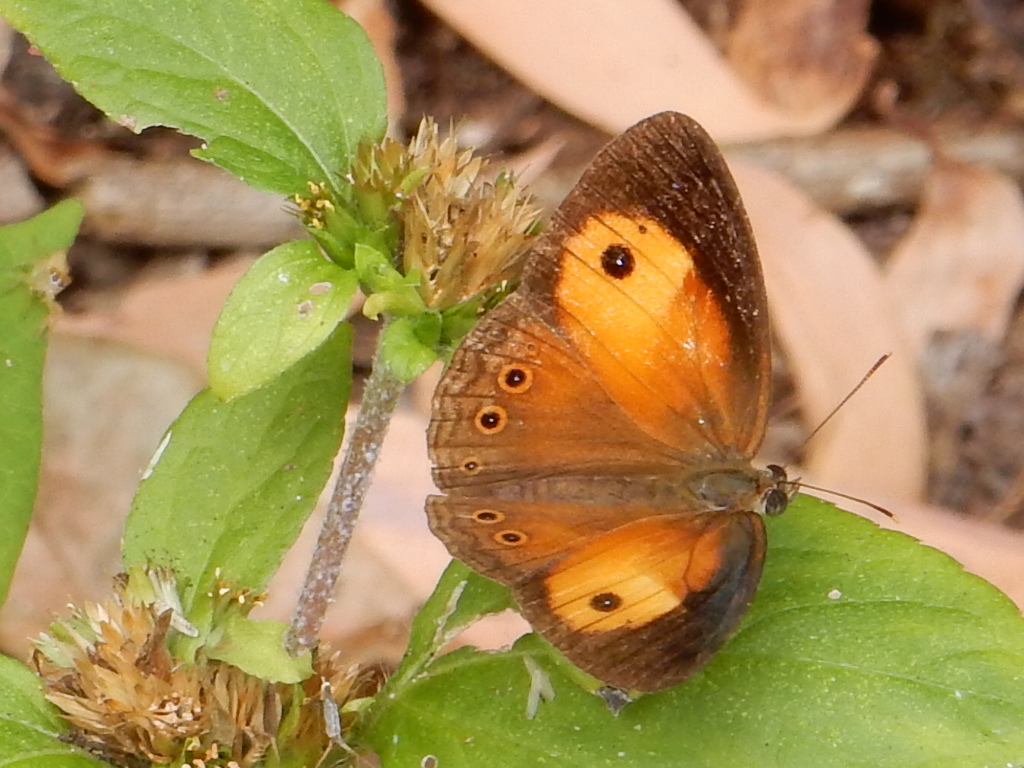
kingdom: Animalia
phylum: Arthropoda
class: Insecta
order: Lepidoptera
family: Nymphalidae
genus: Mycalesis
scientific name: Mycalesis terminus
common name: Orange bushbrown
